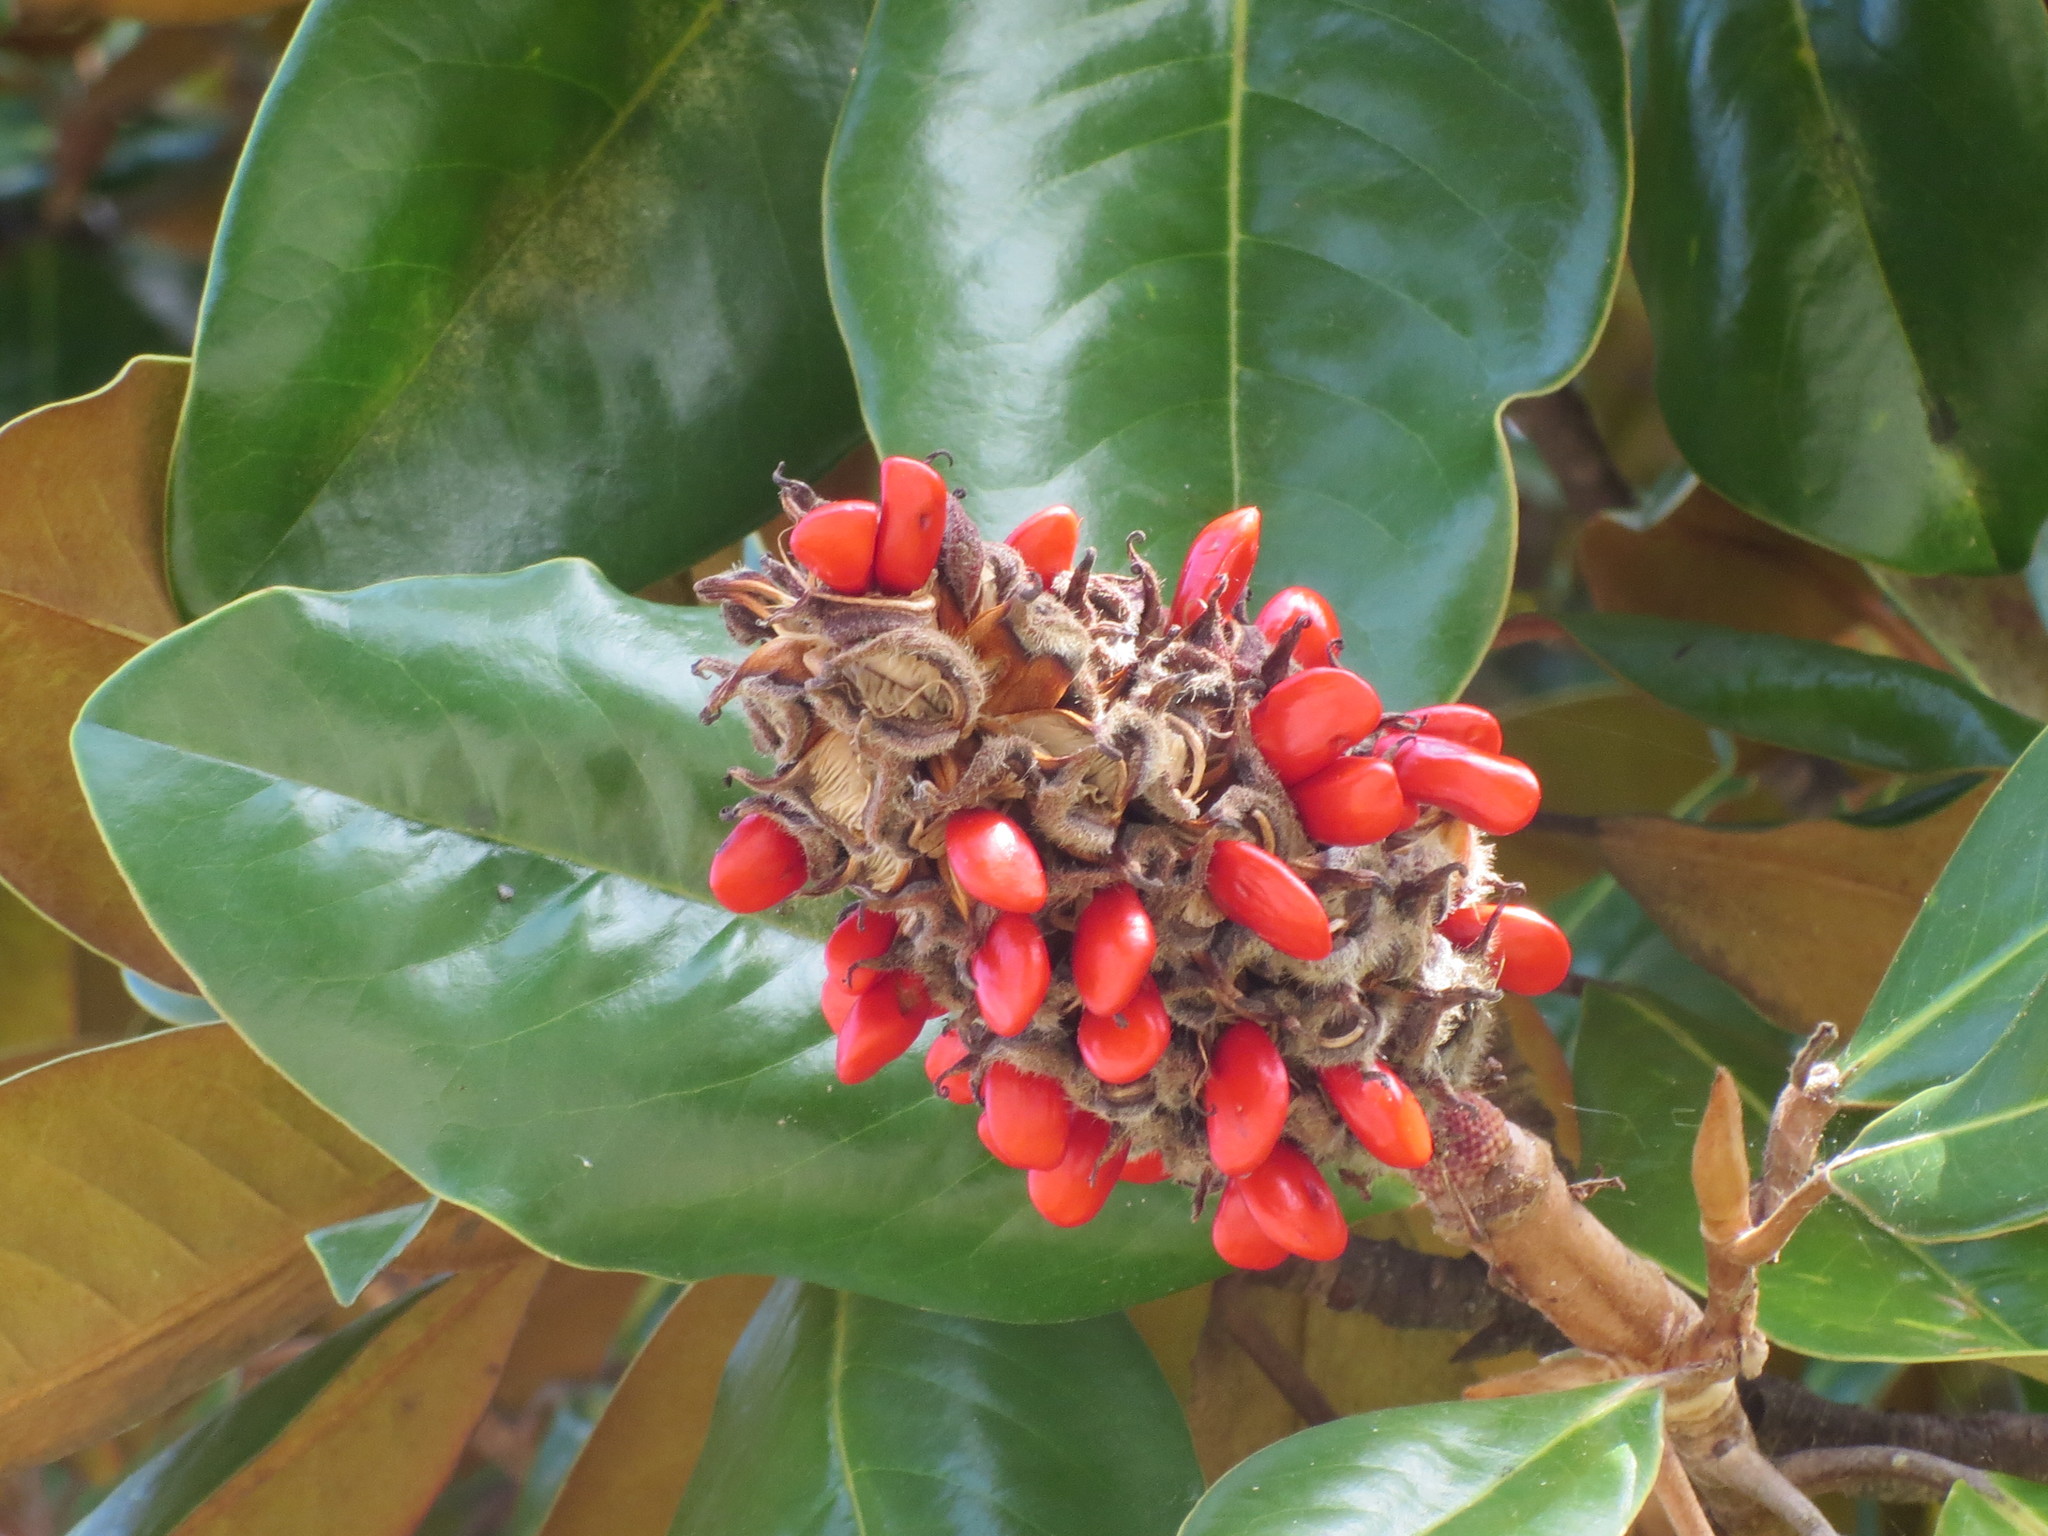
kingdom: Plantae
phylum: Tracheophyta
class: Magnoliopsida
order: Magnoliales
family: Magnoliaceae
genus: Magnolia
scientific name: Magnolia grandiflora
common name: Southern magnolia
